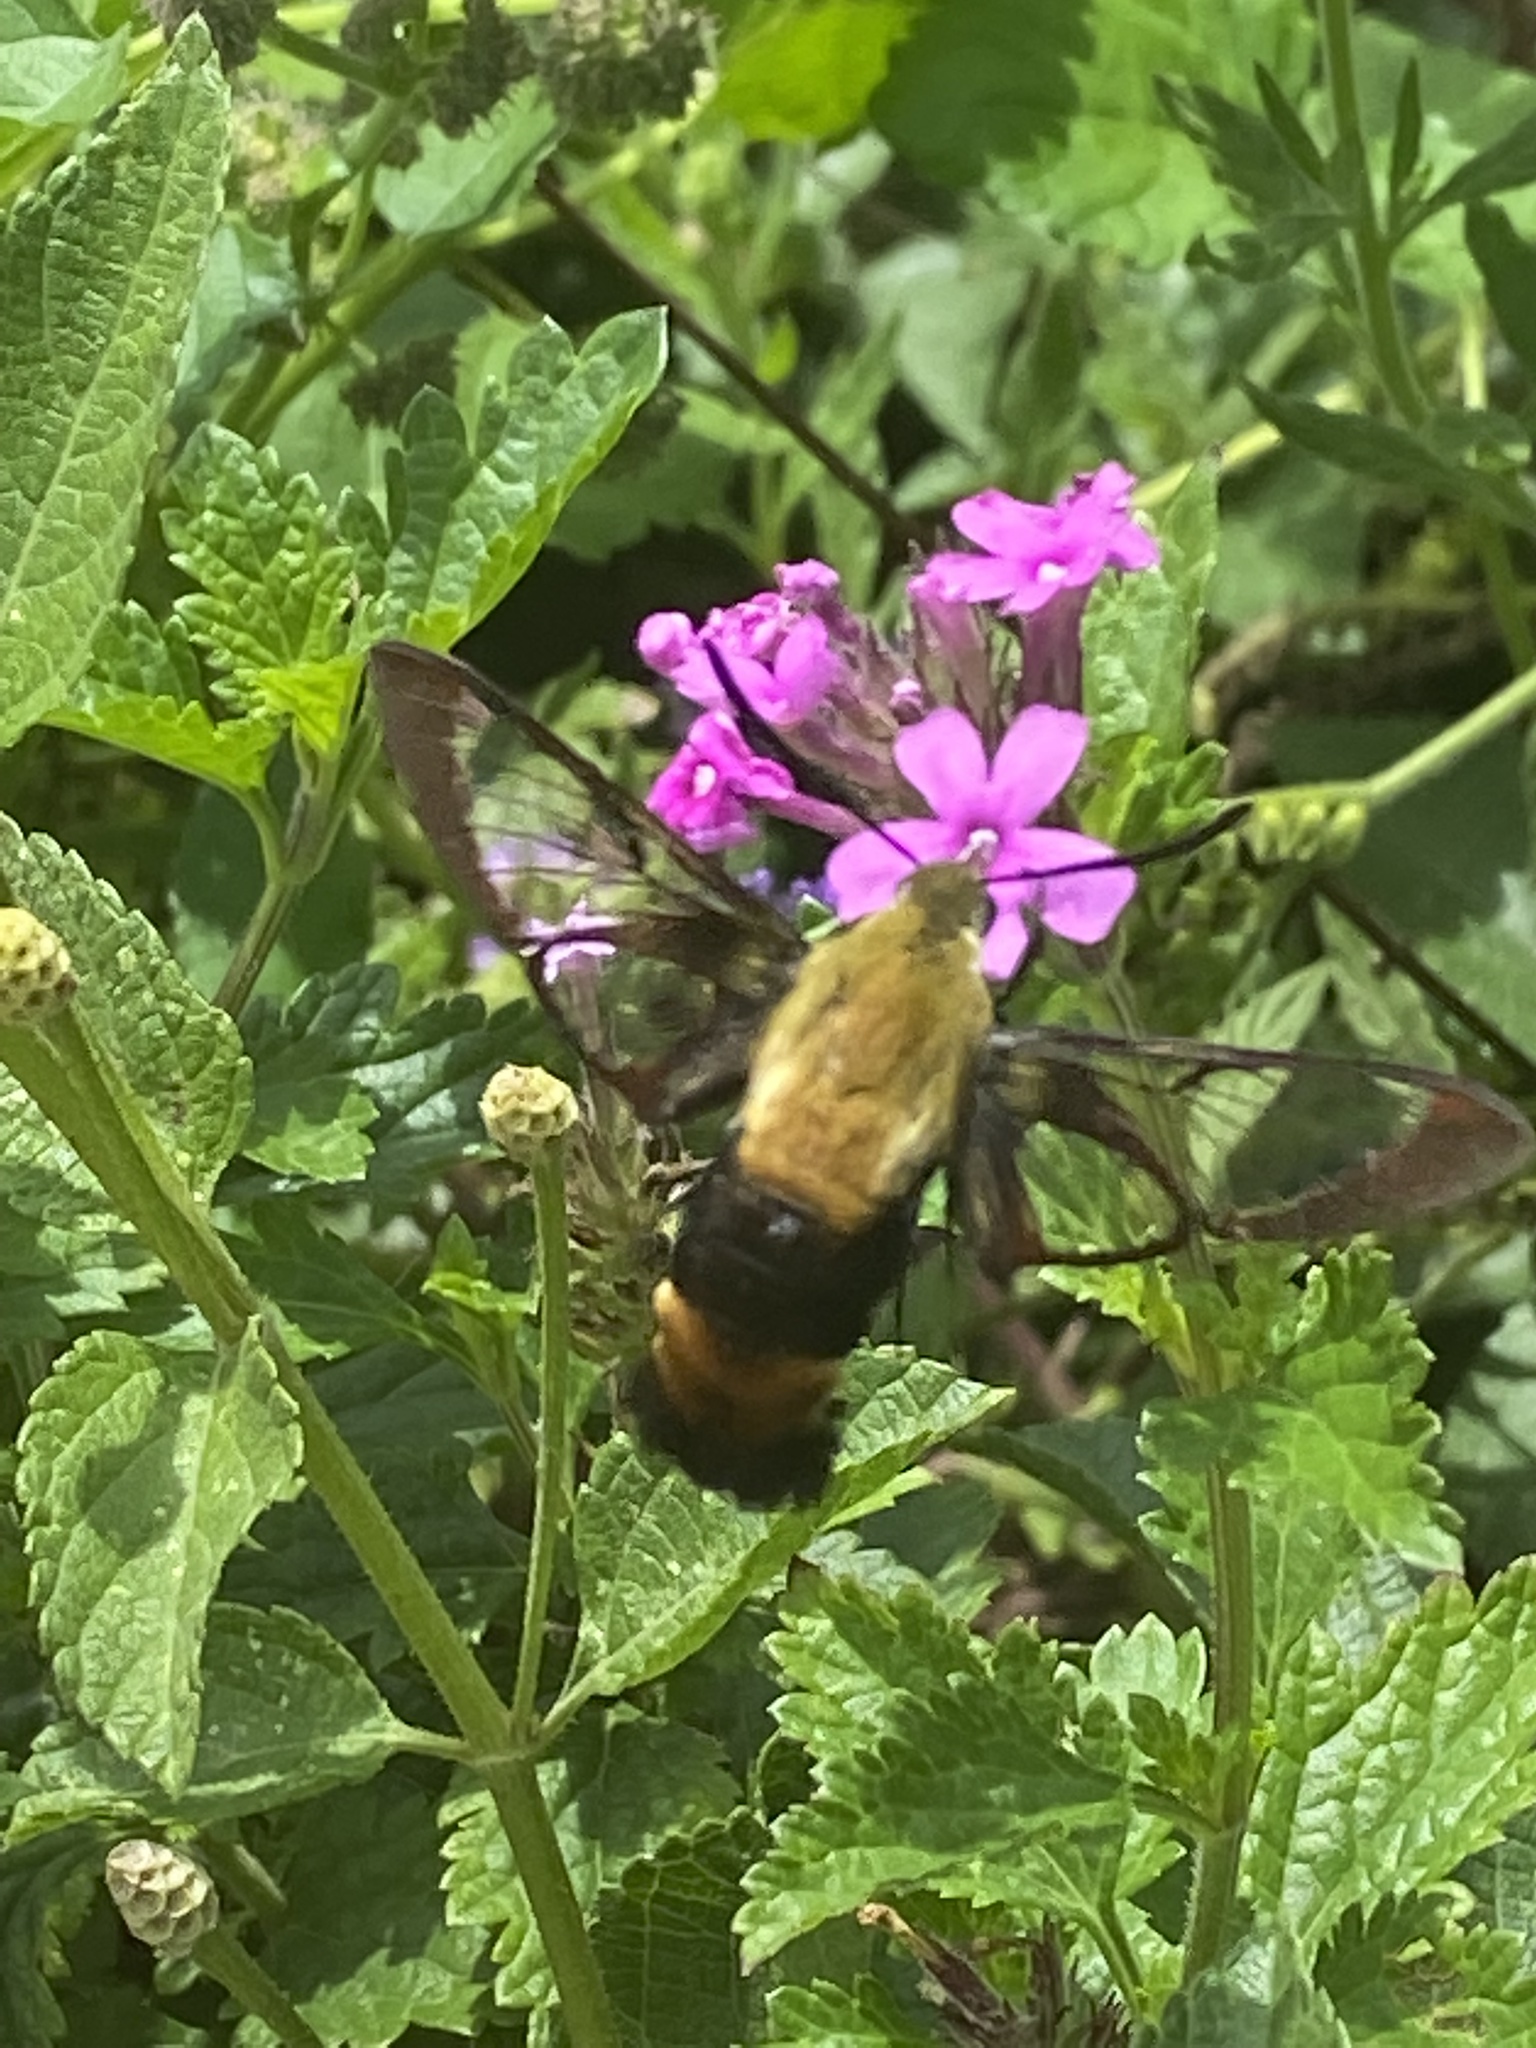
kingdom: Animalia
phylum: Arthropoda
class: Insecta
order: Lepidoptera
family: Sphingidae
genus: Hemaris
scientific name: Hemaris diffinis
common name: Bumblebee moth
